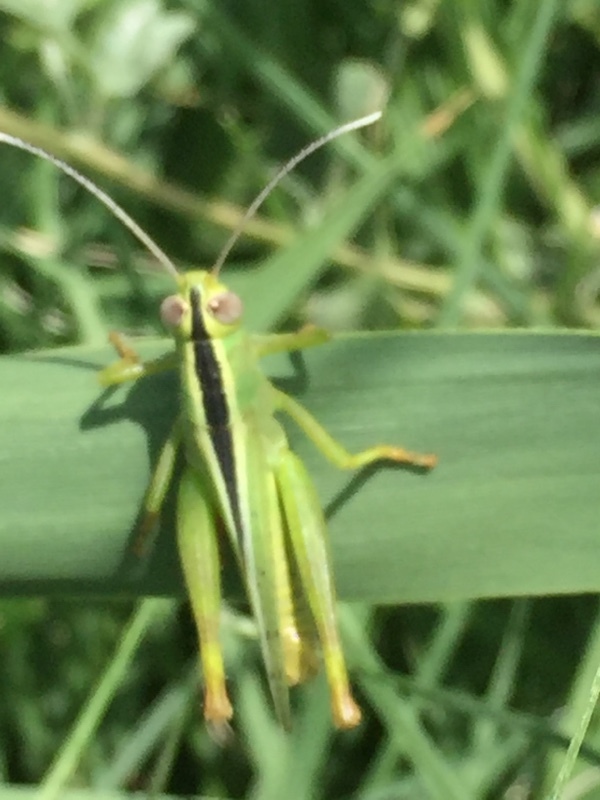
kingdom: Animalia
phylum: Arthropoda
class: Insecta
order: Orthoptera
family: Acrididae
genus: Heteracris
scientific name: Heteracris pterosticha
